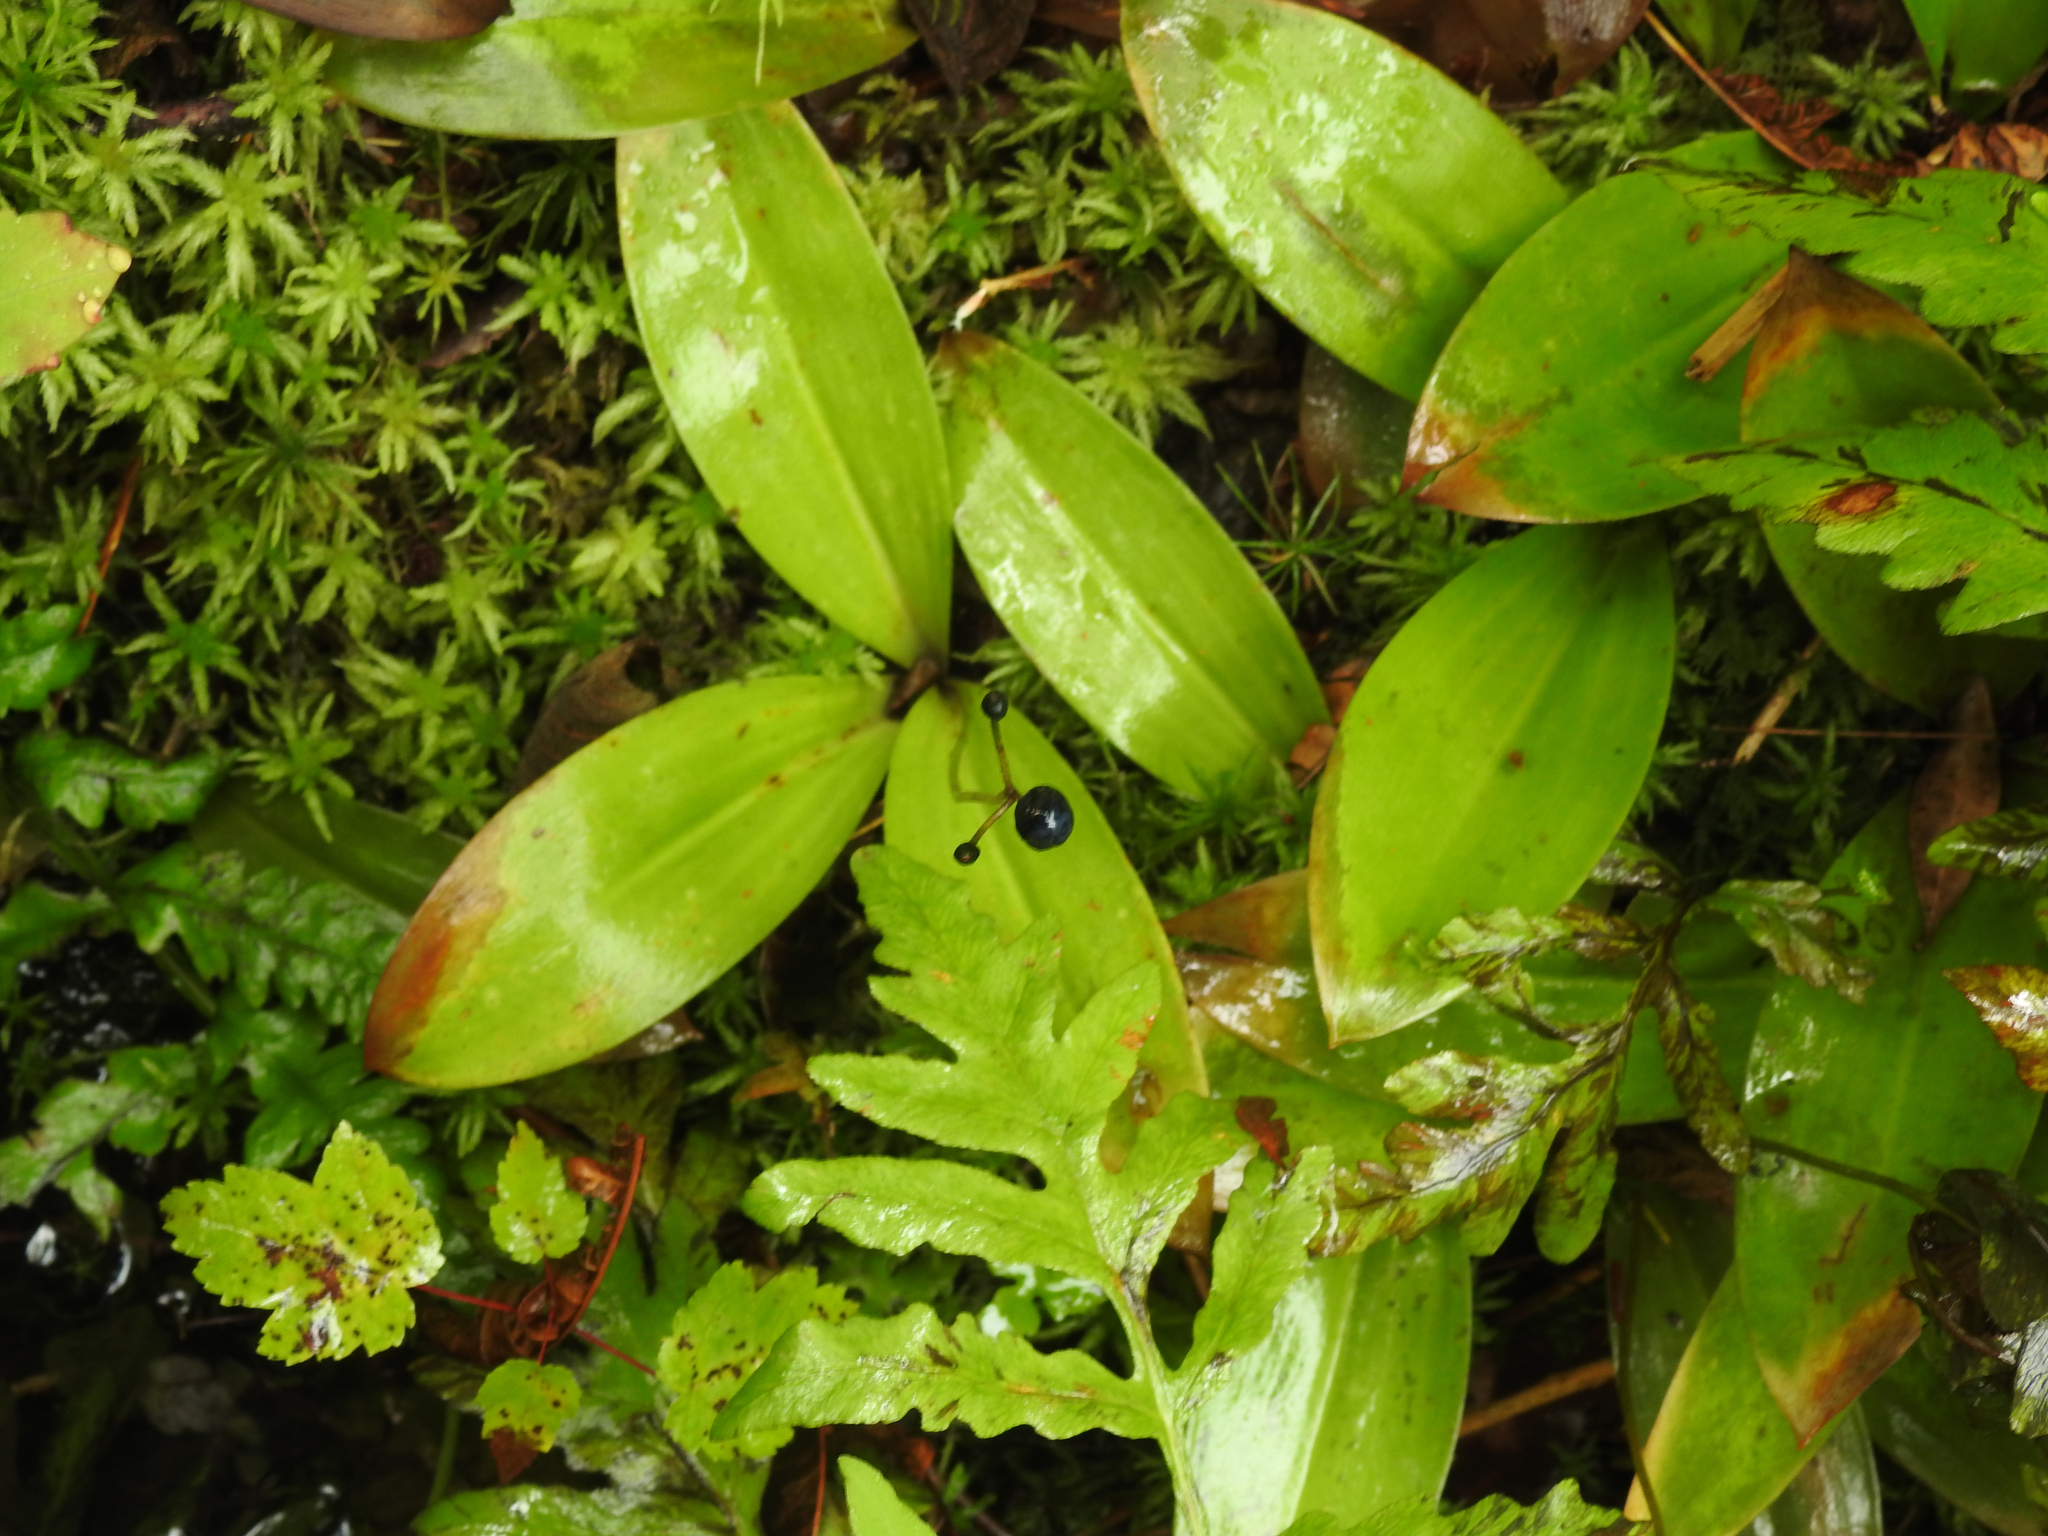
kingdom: Plantae
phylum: Tracheophyta
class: Liliopsida
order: Liliales
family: Liliaceae
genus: Clintonia
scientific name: Clintonia borealis
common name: Yellow clintonia
